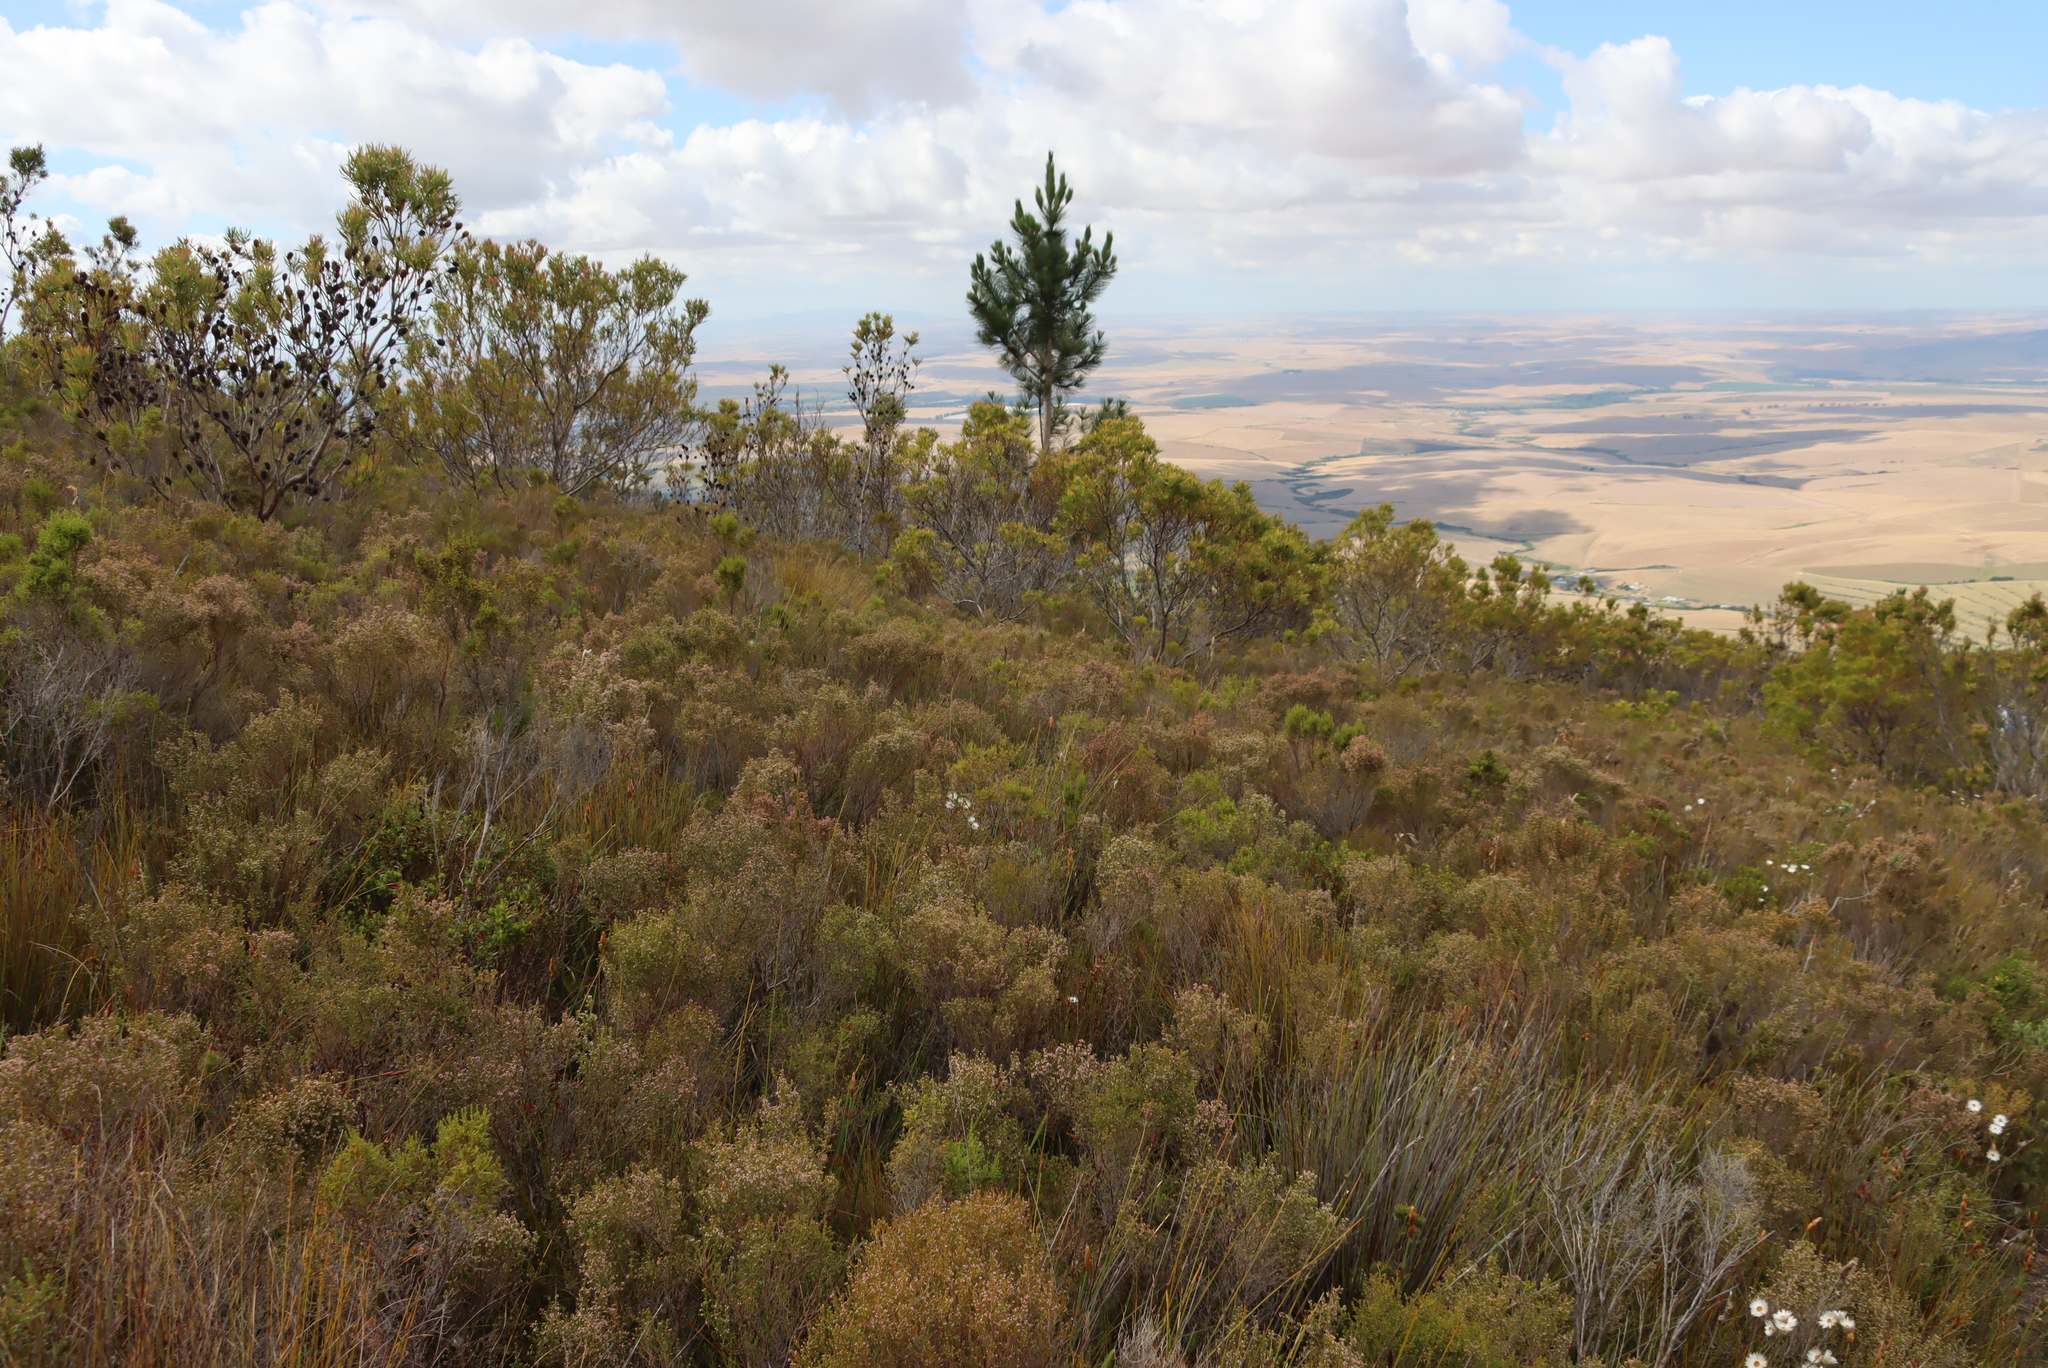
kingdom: Plantae
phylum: Tracheophyta
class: Pinopsida
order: Pinales
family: Pinaceae
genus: Pinus
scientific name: Pinus radiata
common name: Monterey pine
